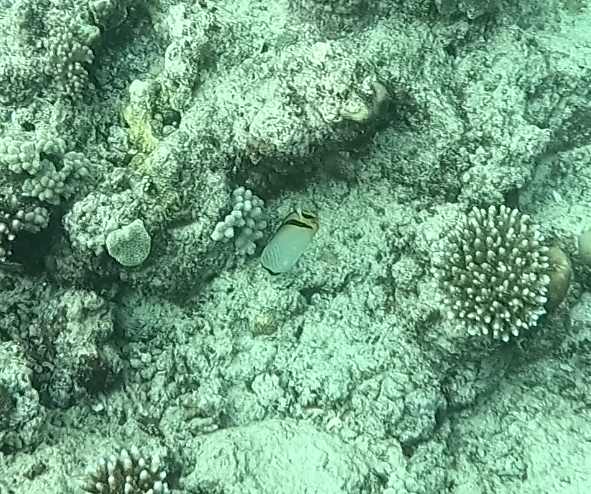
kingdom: Animalia
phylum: Chordata
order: Perciformes
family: Chaetodontidae
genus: Chaetodon
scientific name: Chaetodon vagabundus
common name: Vagabond butterflyfish
